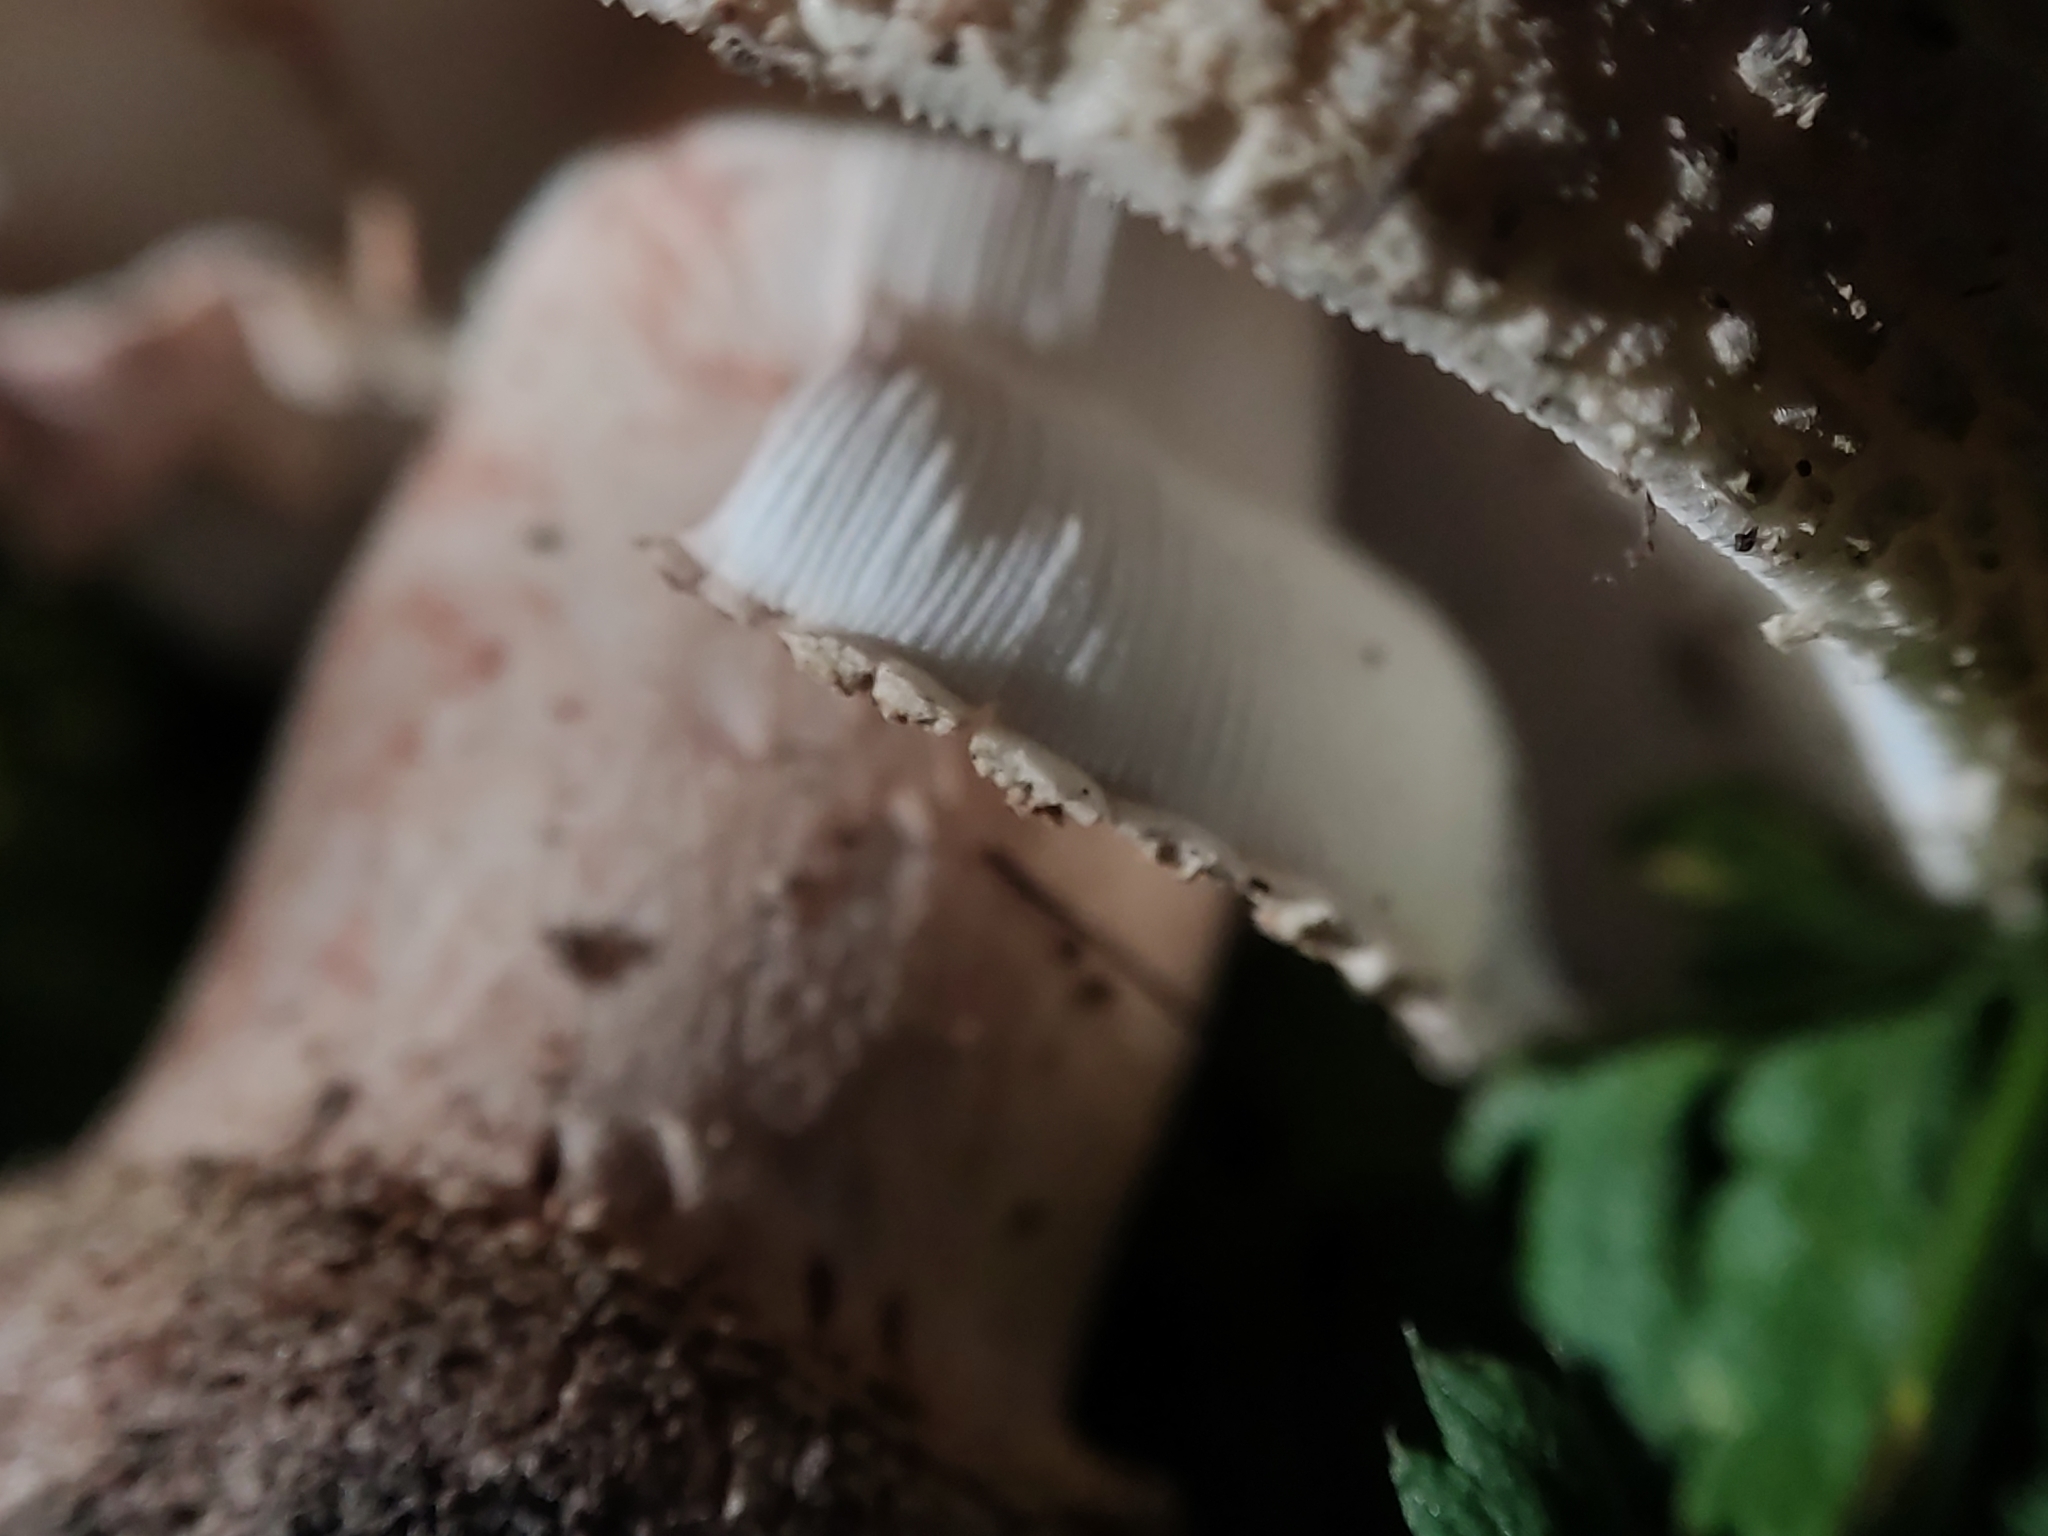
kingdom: Fungi
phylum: Basidiomycota
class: Agaricomycetes
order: Agaricales
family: Amanitaceae
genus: Amanita
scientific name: Amanita rubescens
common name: Blusher
